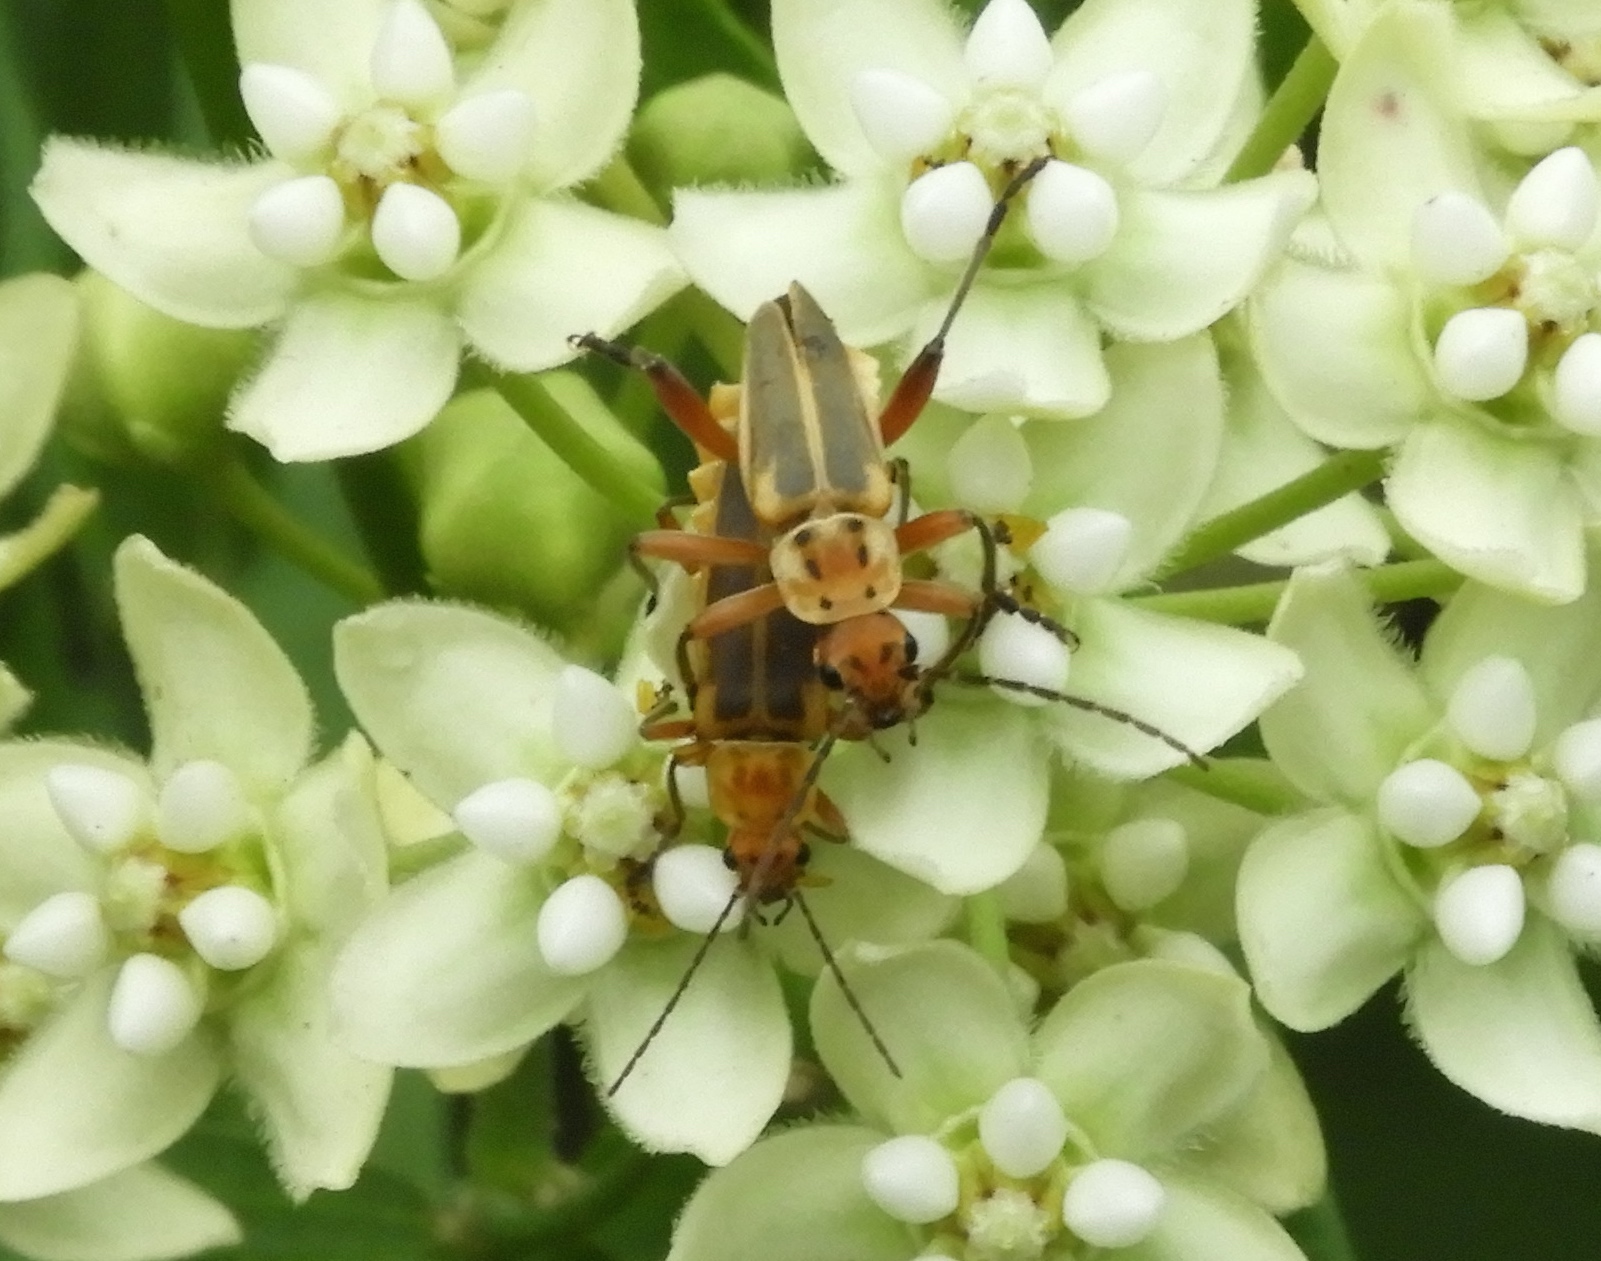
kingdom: Animalia
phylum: Arthropoda
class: Insecta
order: Coleoptera
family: Cantharidae
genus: Chauliognathus
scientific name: Chauliognathus
